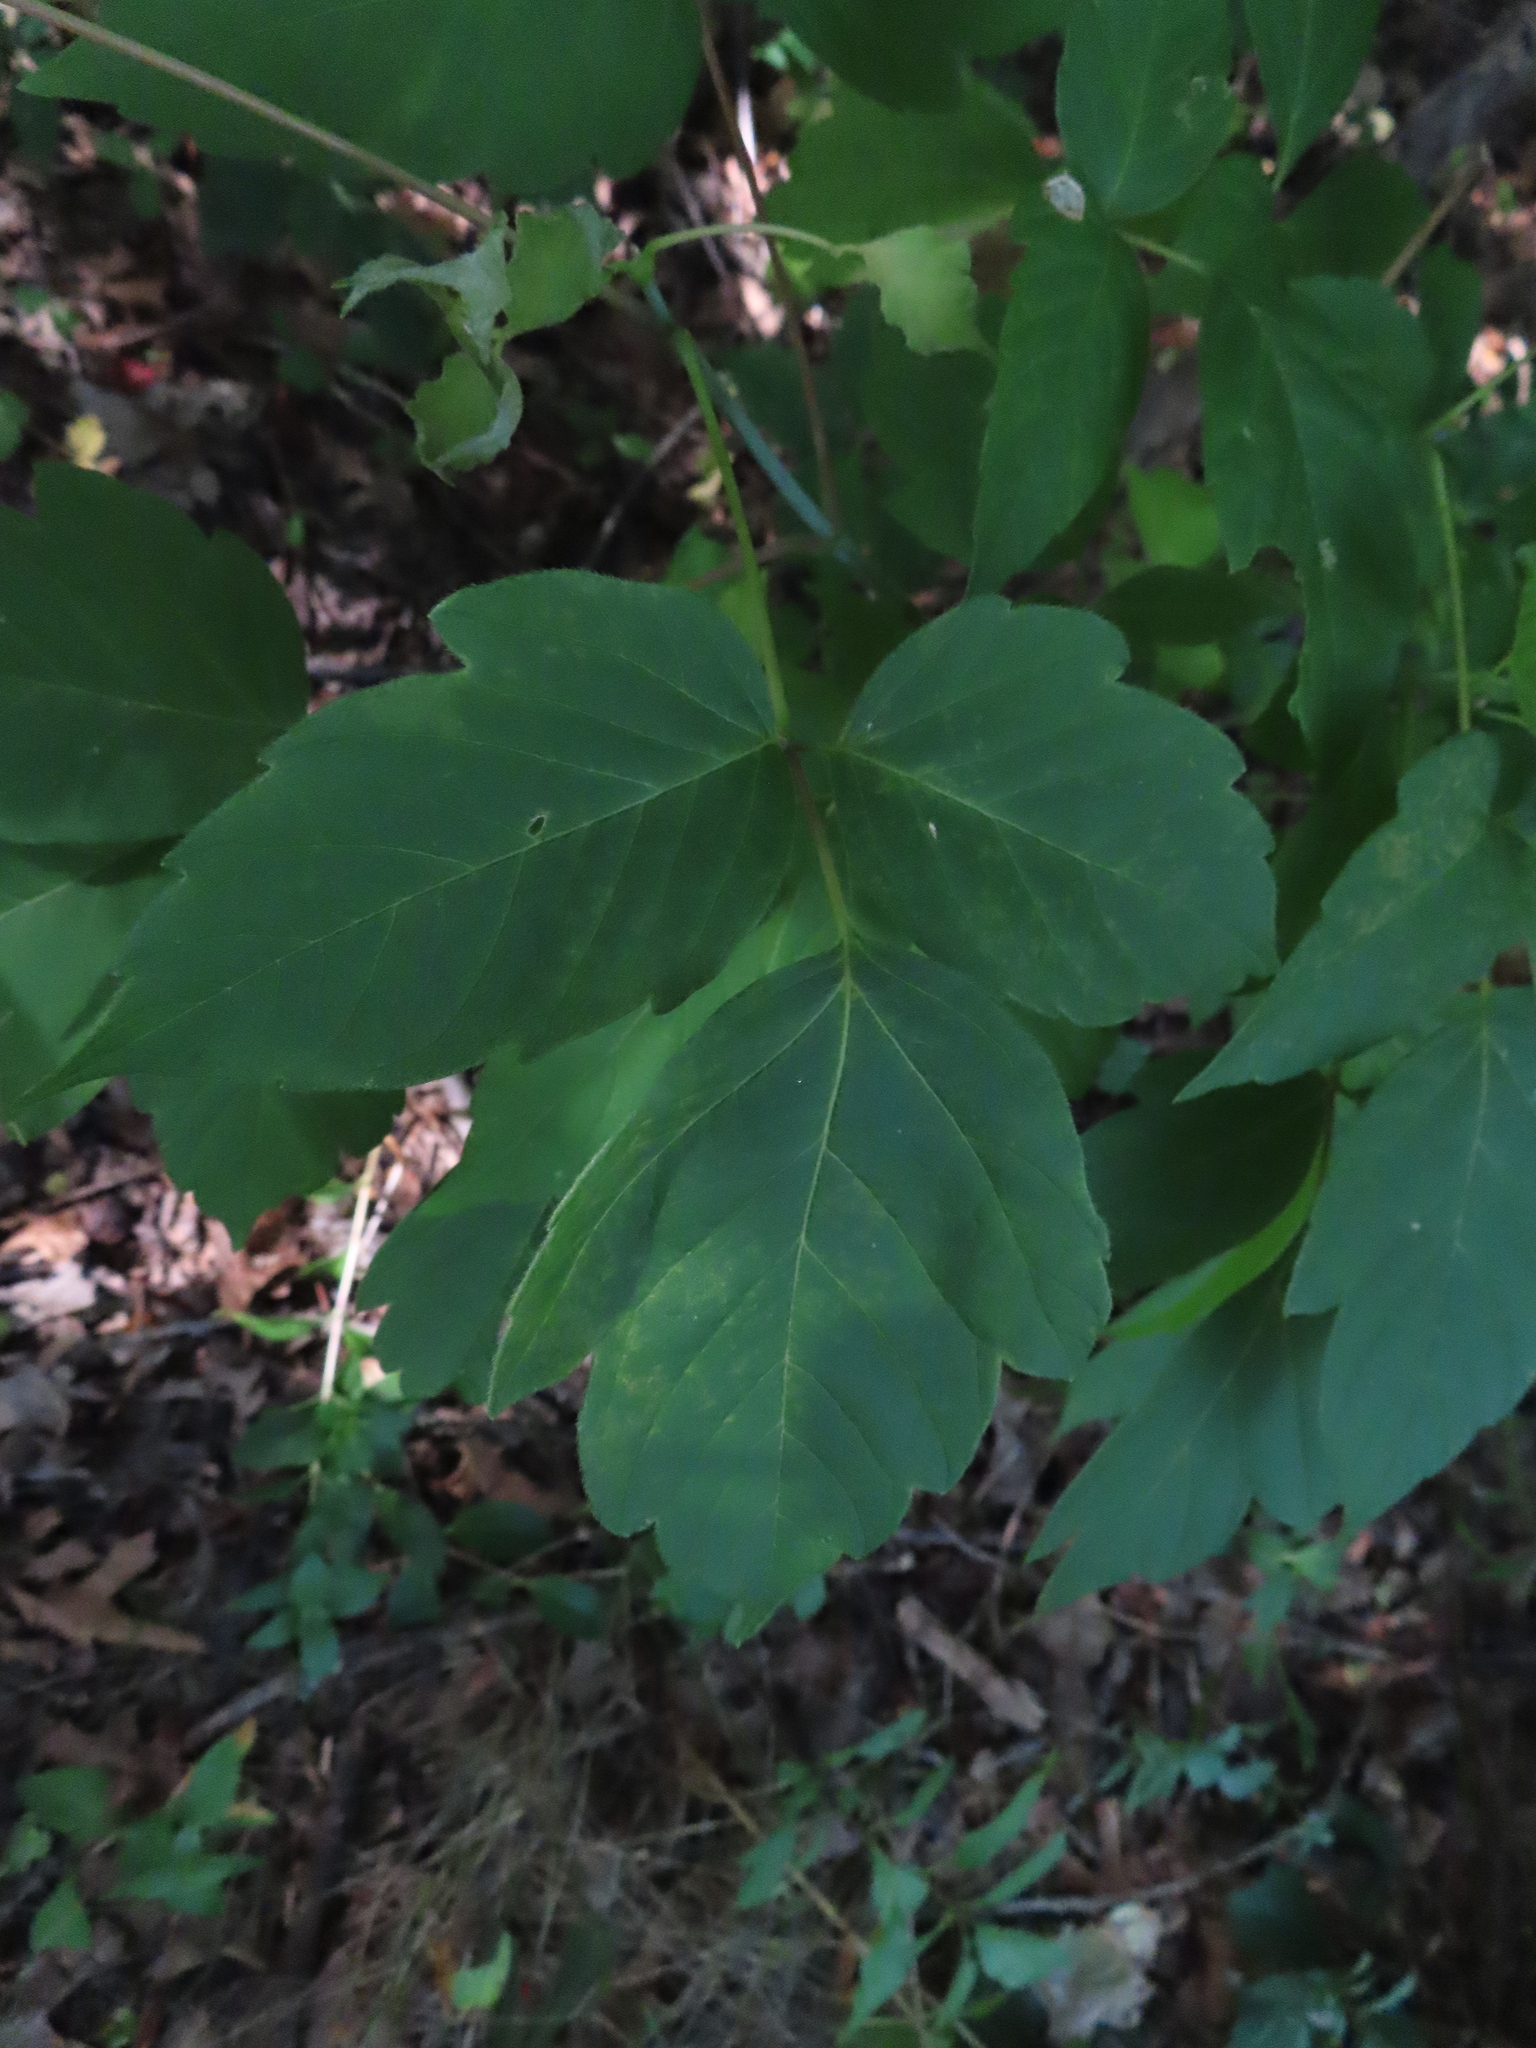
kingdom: Plantae
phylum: Tracheophyta
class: Magnoliopsida
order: Sapindales
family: Sapindaceae
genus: Acer
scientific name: Acer negundo
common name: Ashleaf maple
